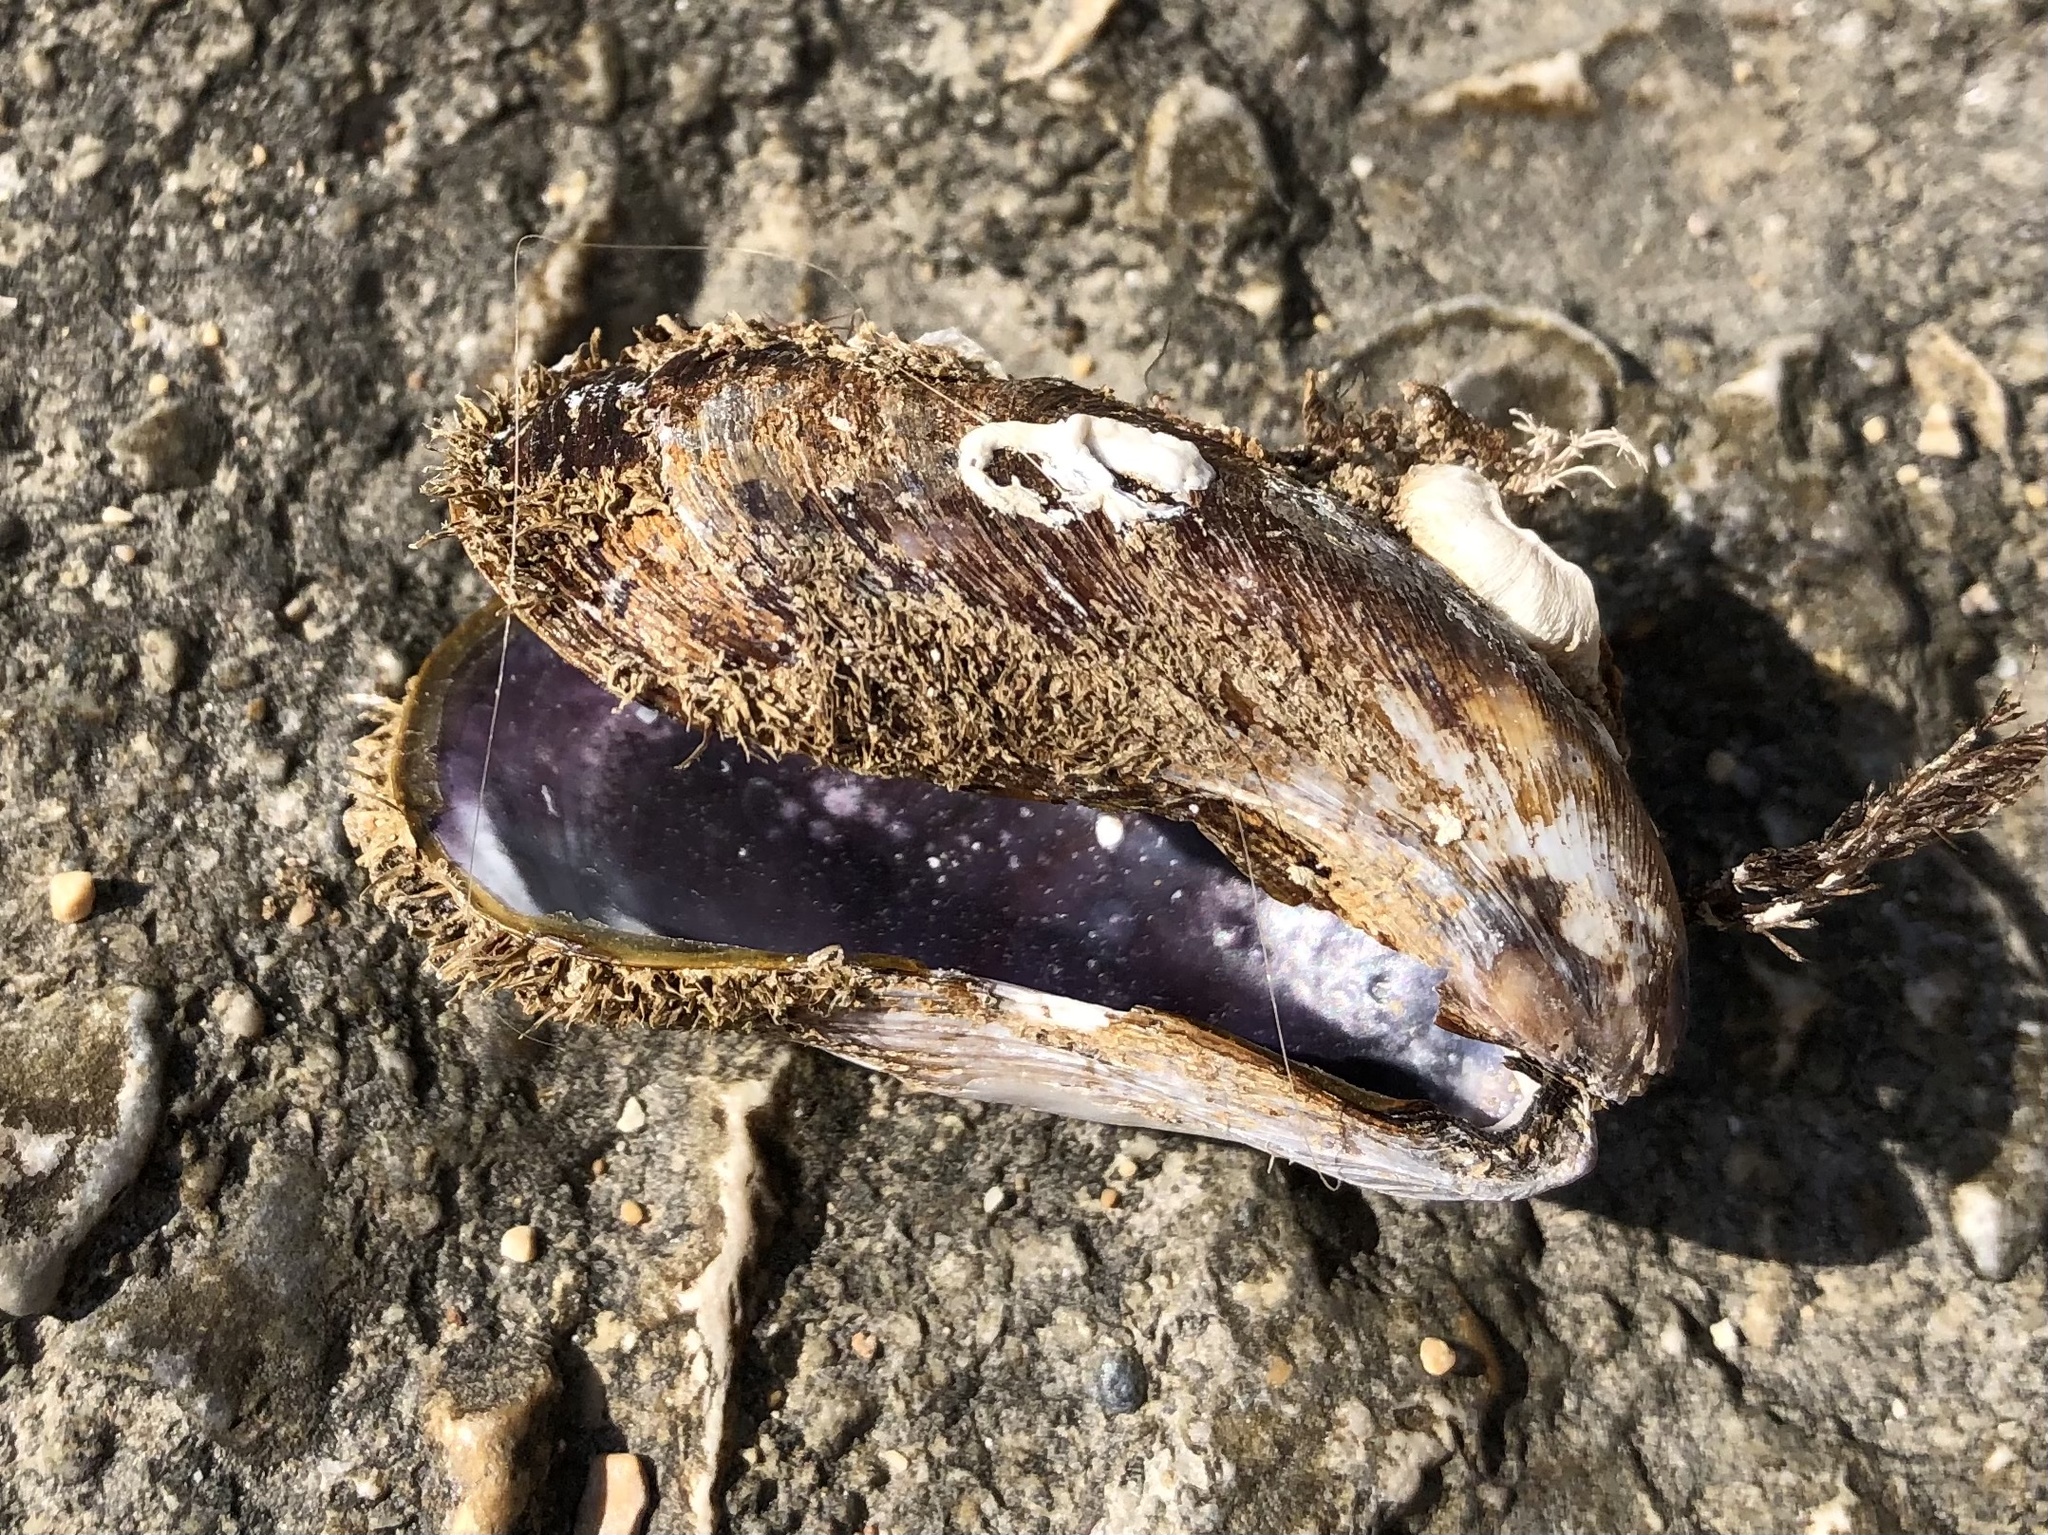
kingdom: Animalia
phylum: Mollusca
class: Bivalvia
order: Mytilida
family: Mytilidae
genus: Modiolus
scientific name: Modiolus barbatus
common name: Bearded mussel
